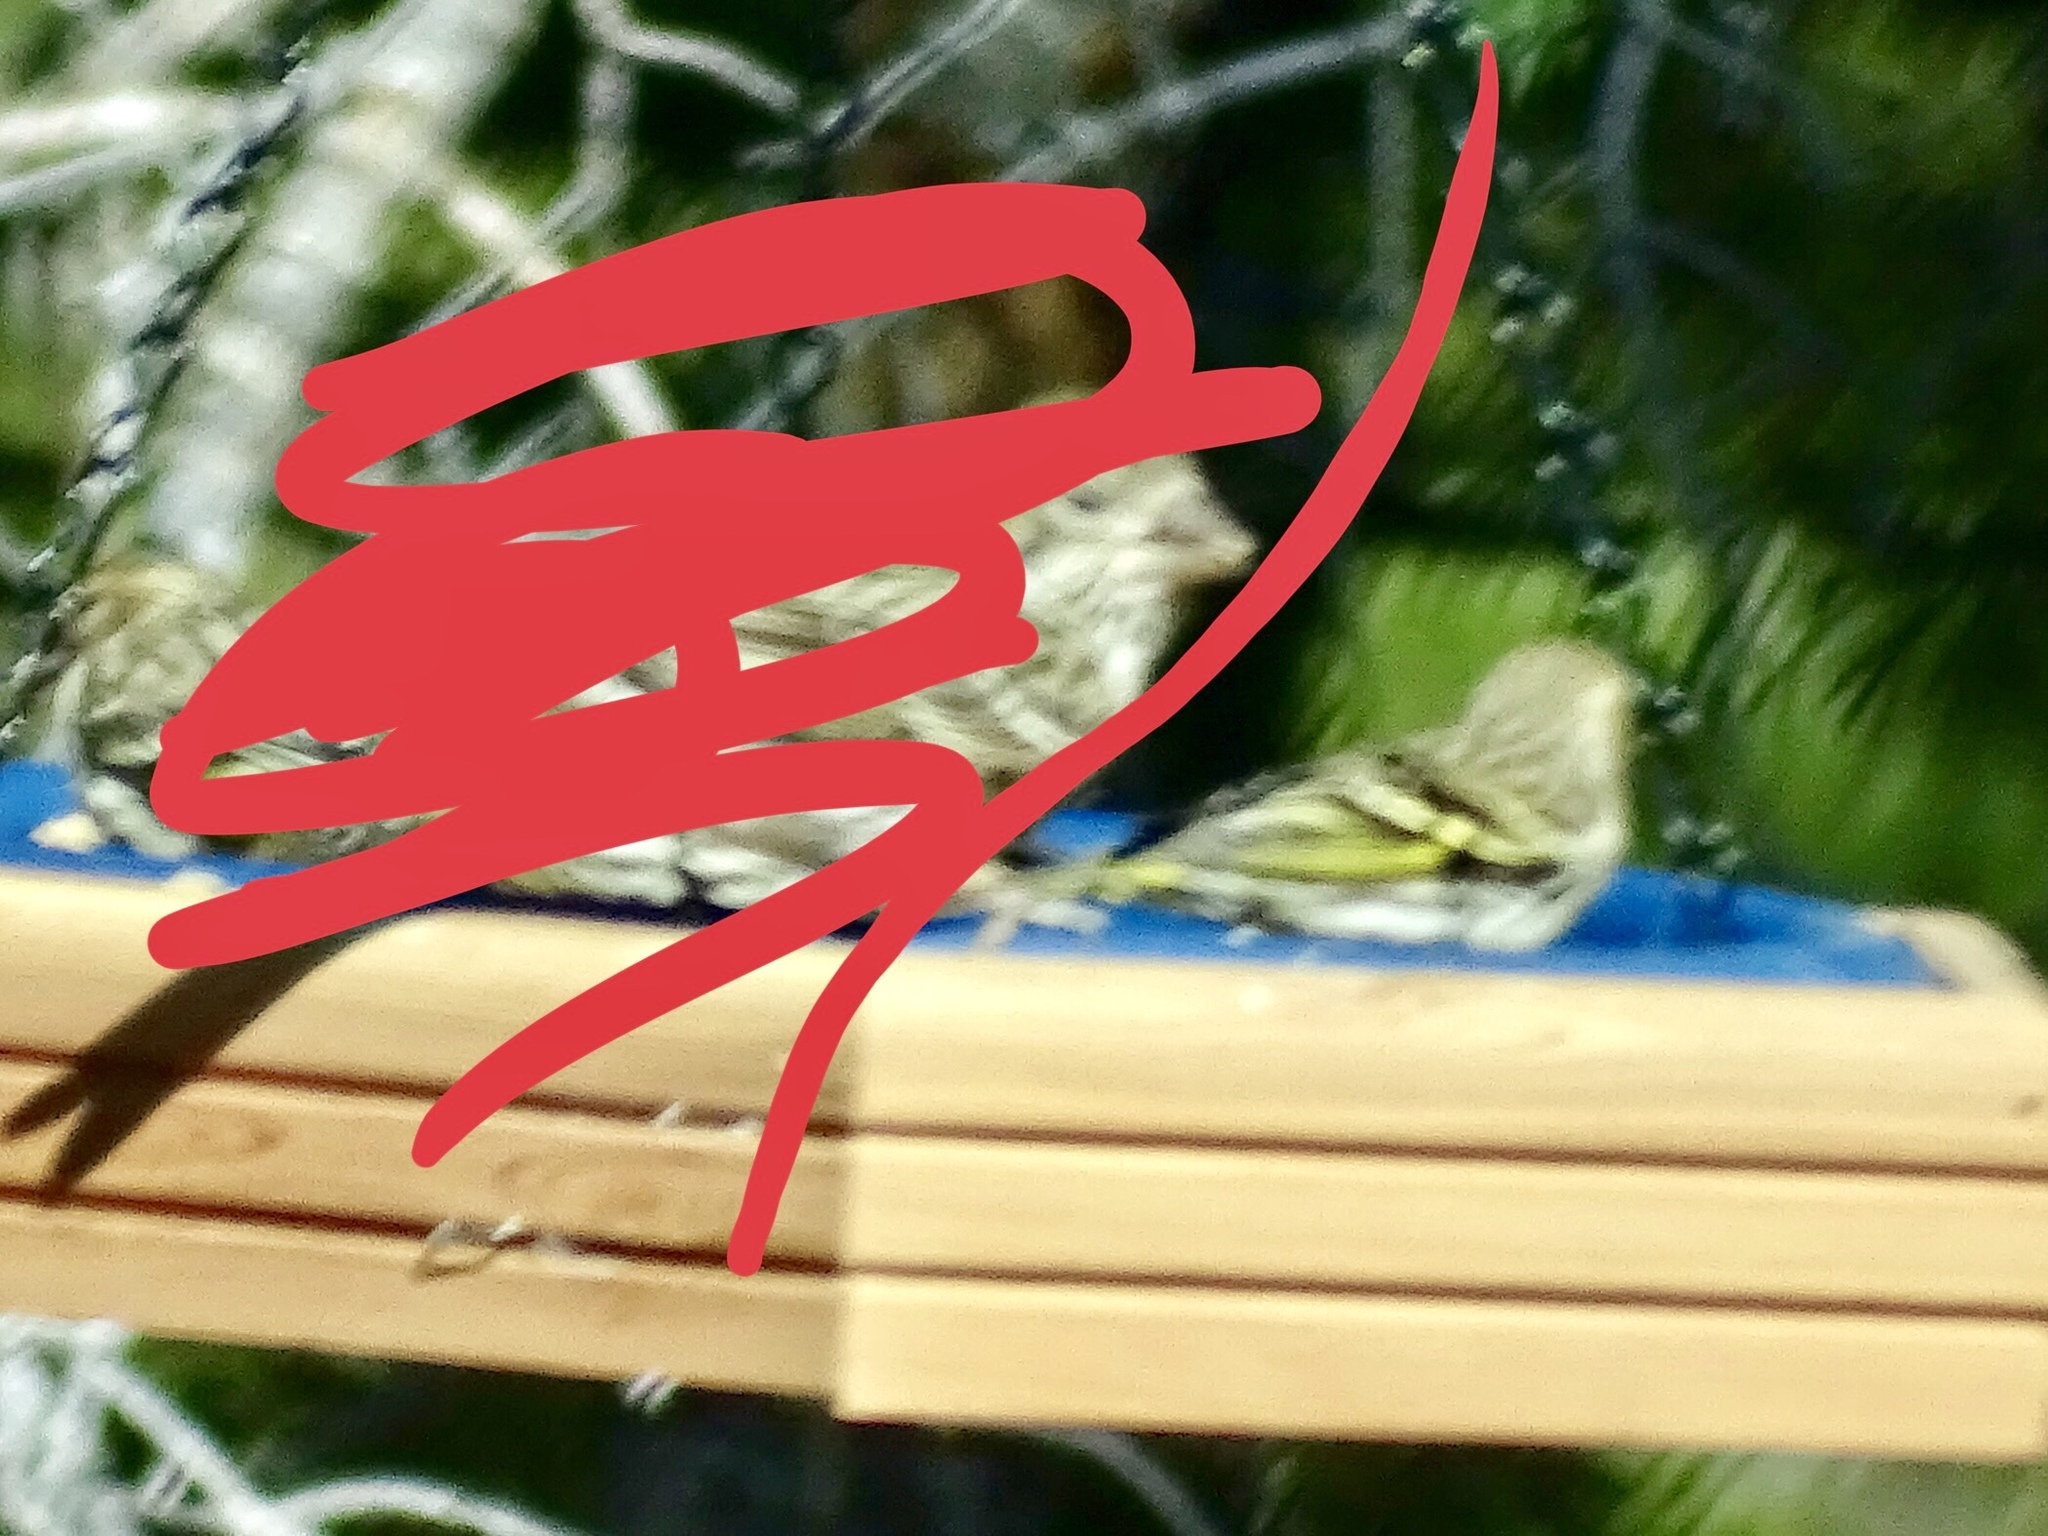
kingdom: Animalia
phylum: Chordata
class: Aves
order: Passeriformes
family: Fringillidae
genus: Spinus
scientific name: Spinus pinus
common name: Pine siskin
